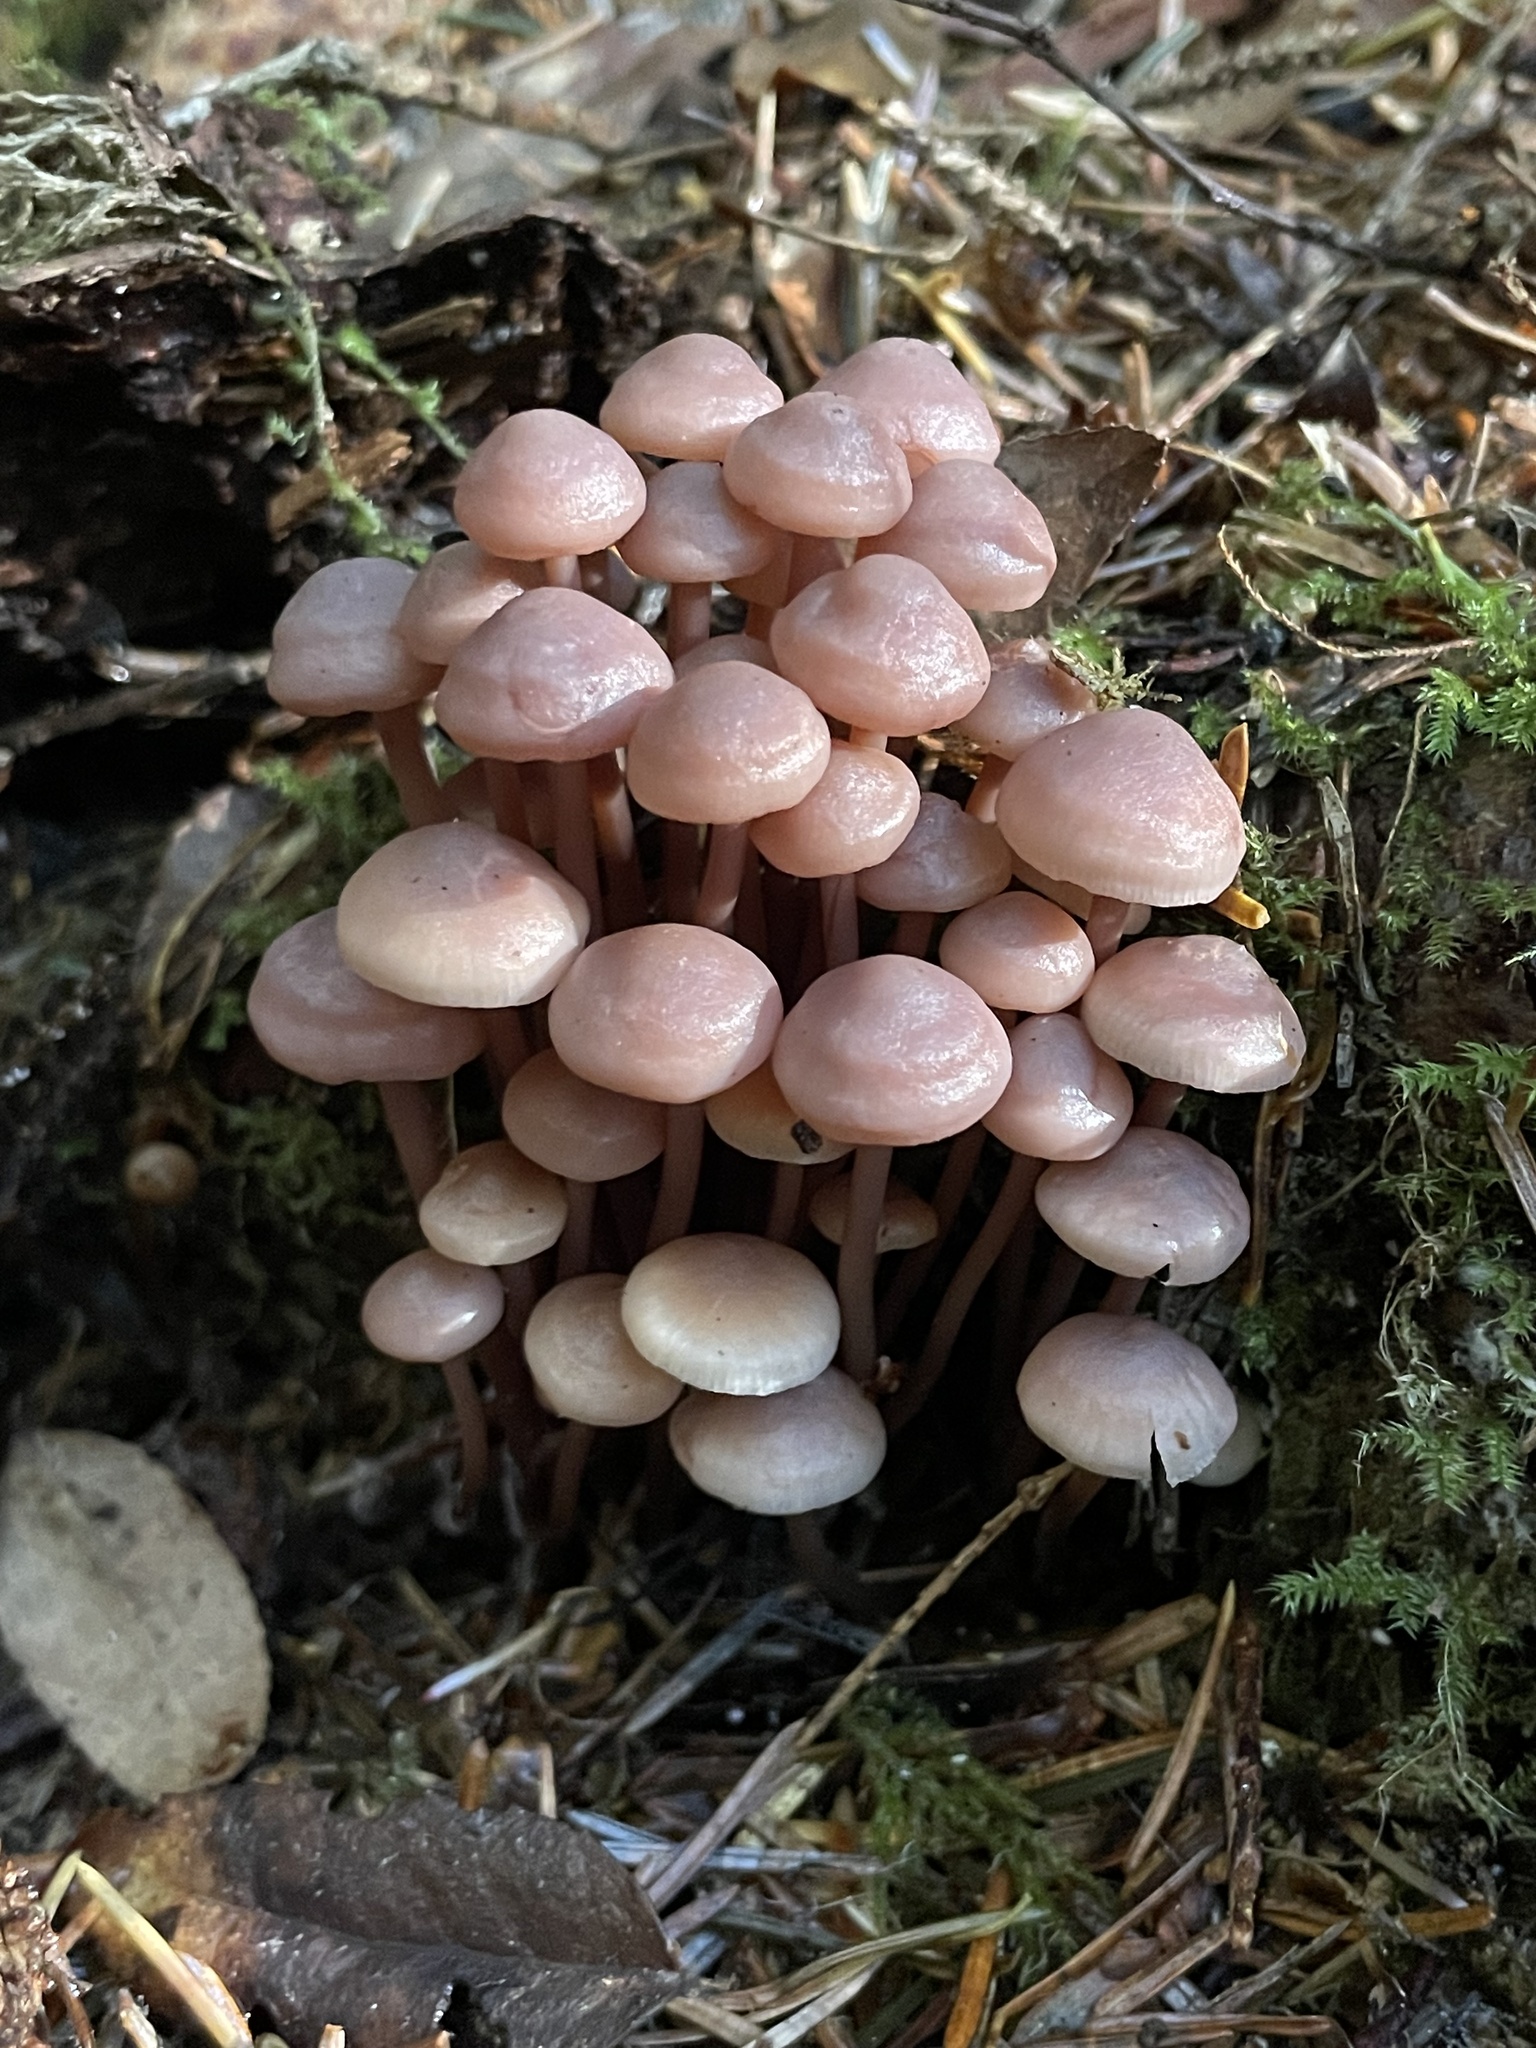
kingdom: Fungi
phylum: Basidiomycota
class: Agaricomycetes
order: Agaricales
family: Omphalotaceae
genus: Connopus
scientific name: Connopus acervatus
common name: Cluster cap
